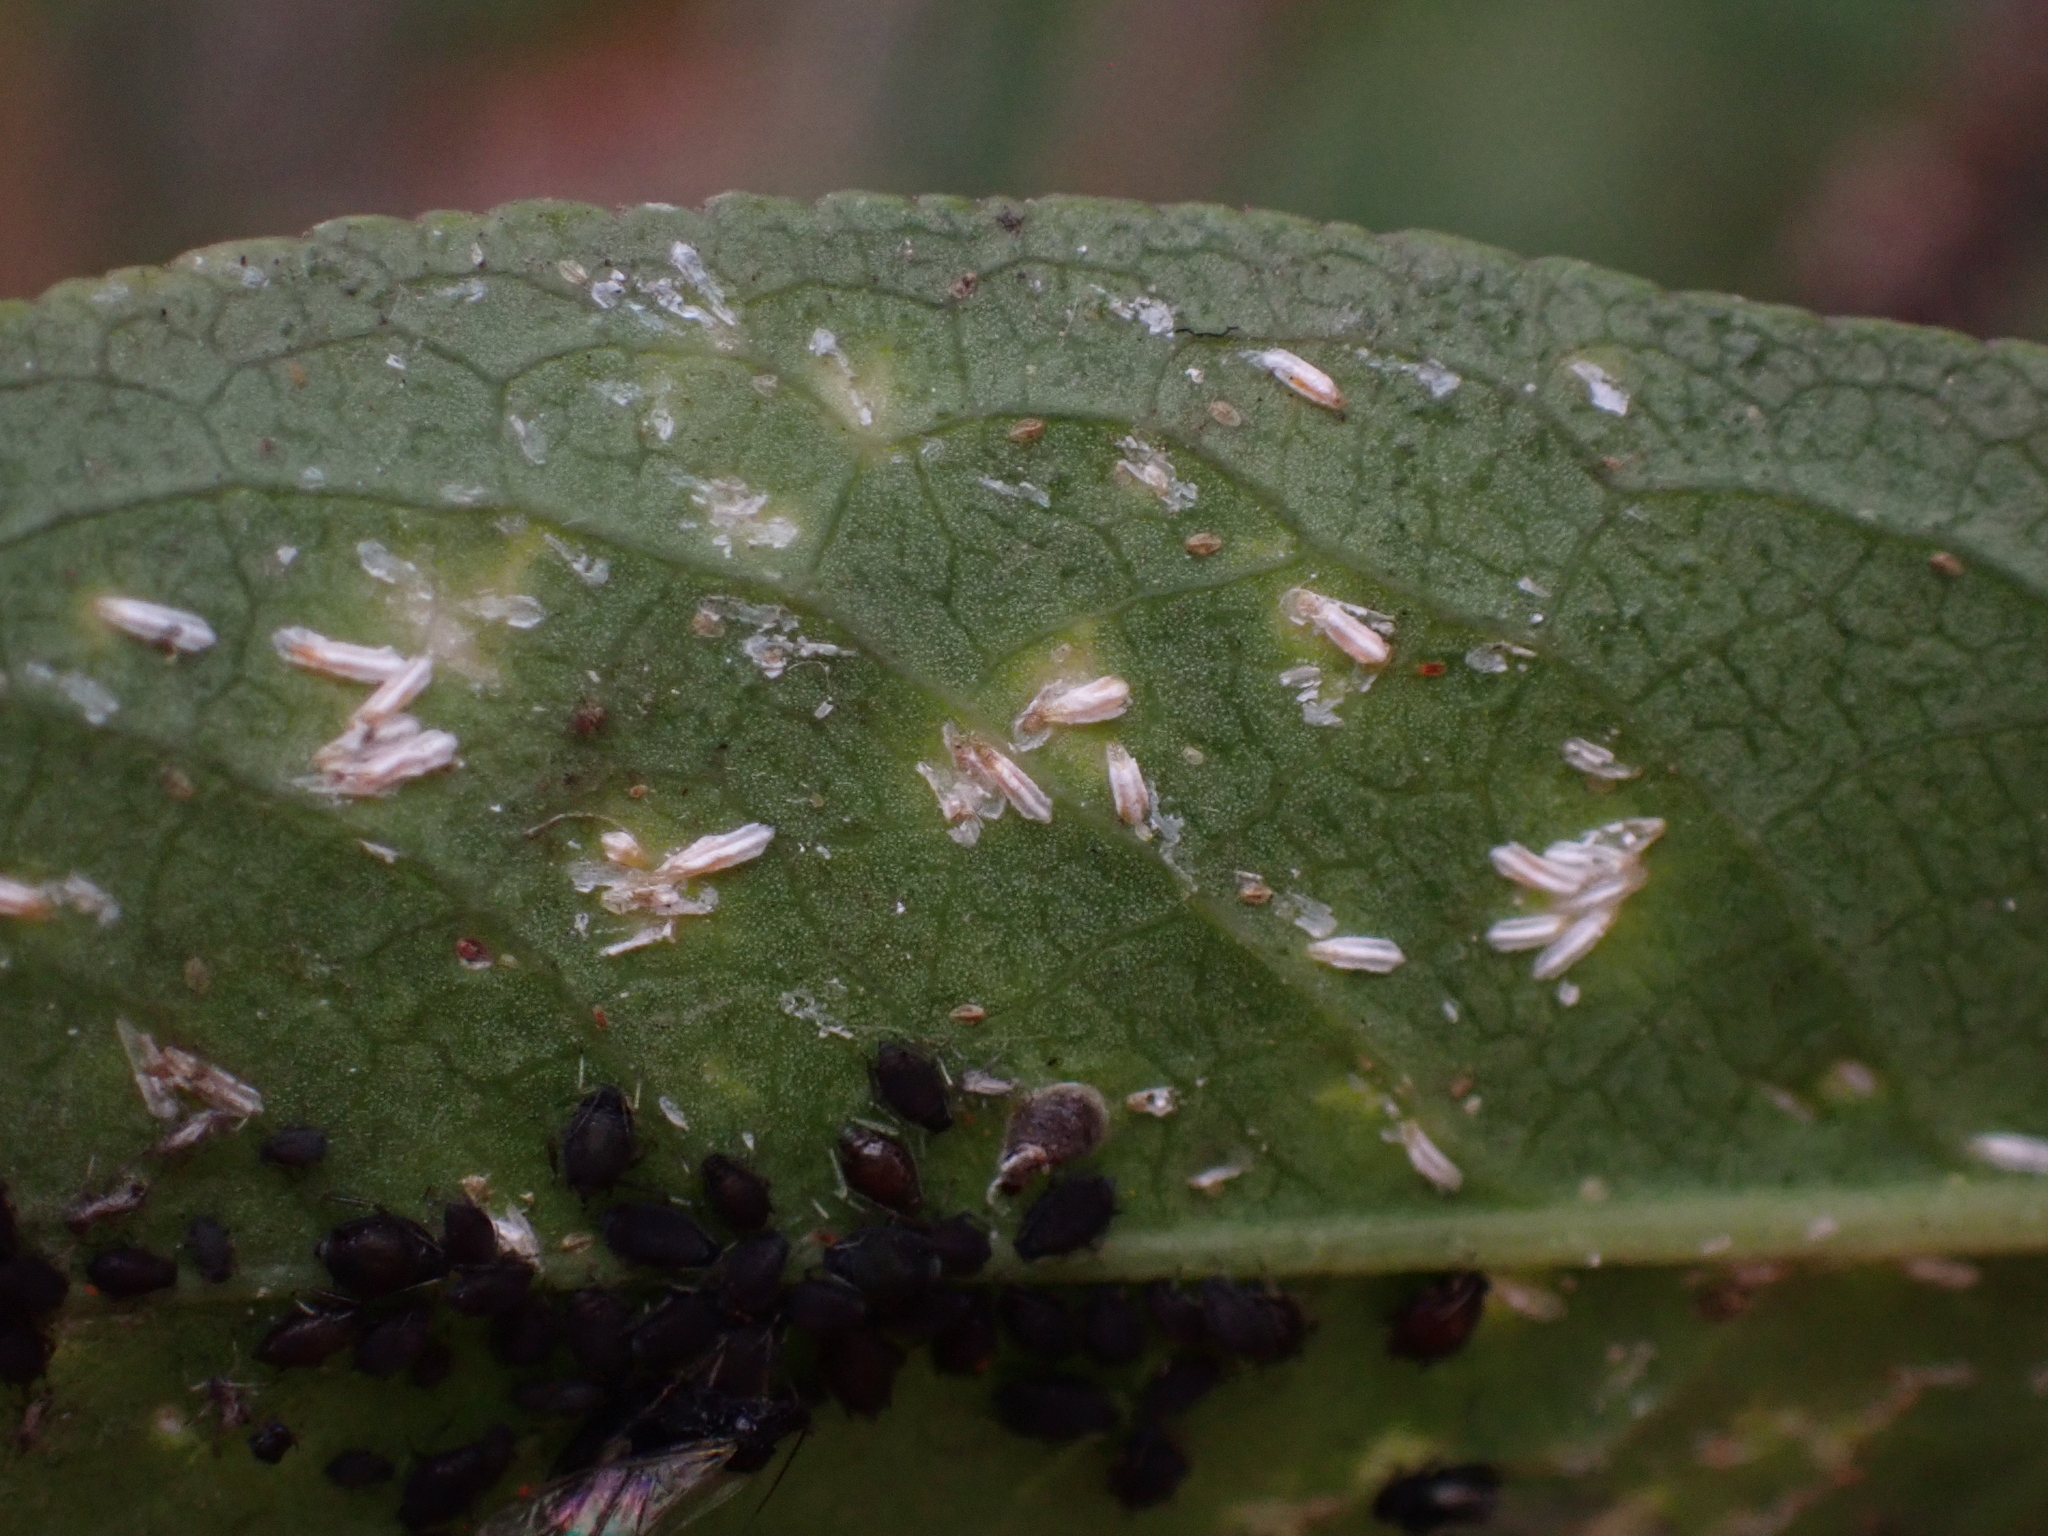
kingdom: Animalia
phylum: Arthropoda
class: Insecta
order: Hemiptera
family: Diaspididae
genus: Unaspis
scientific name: Unaspis euonymi
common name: Euonymus scale
